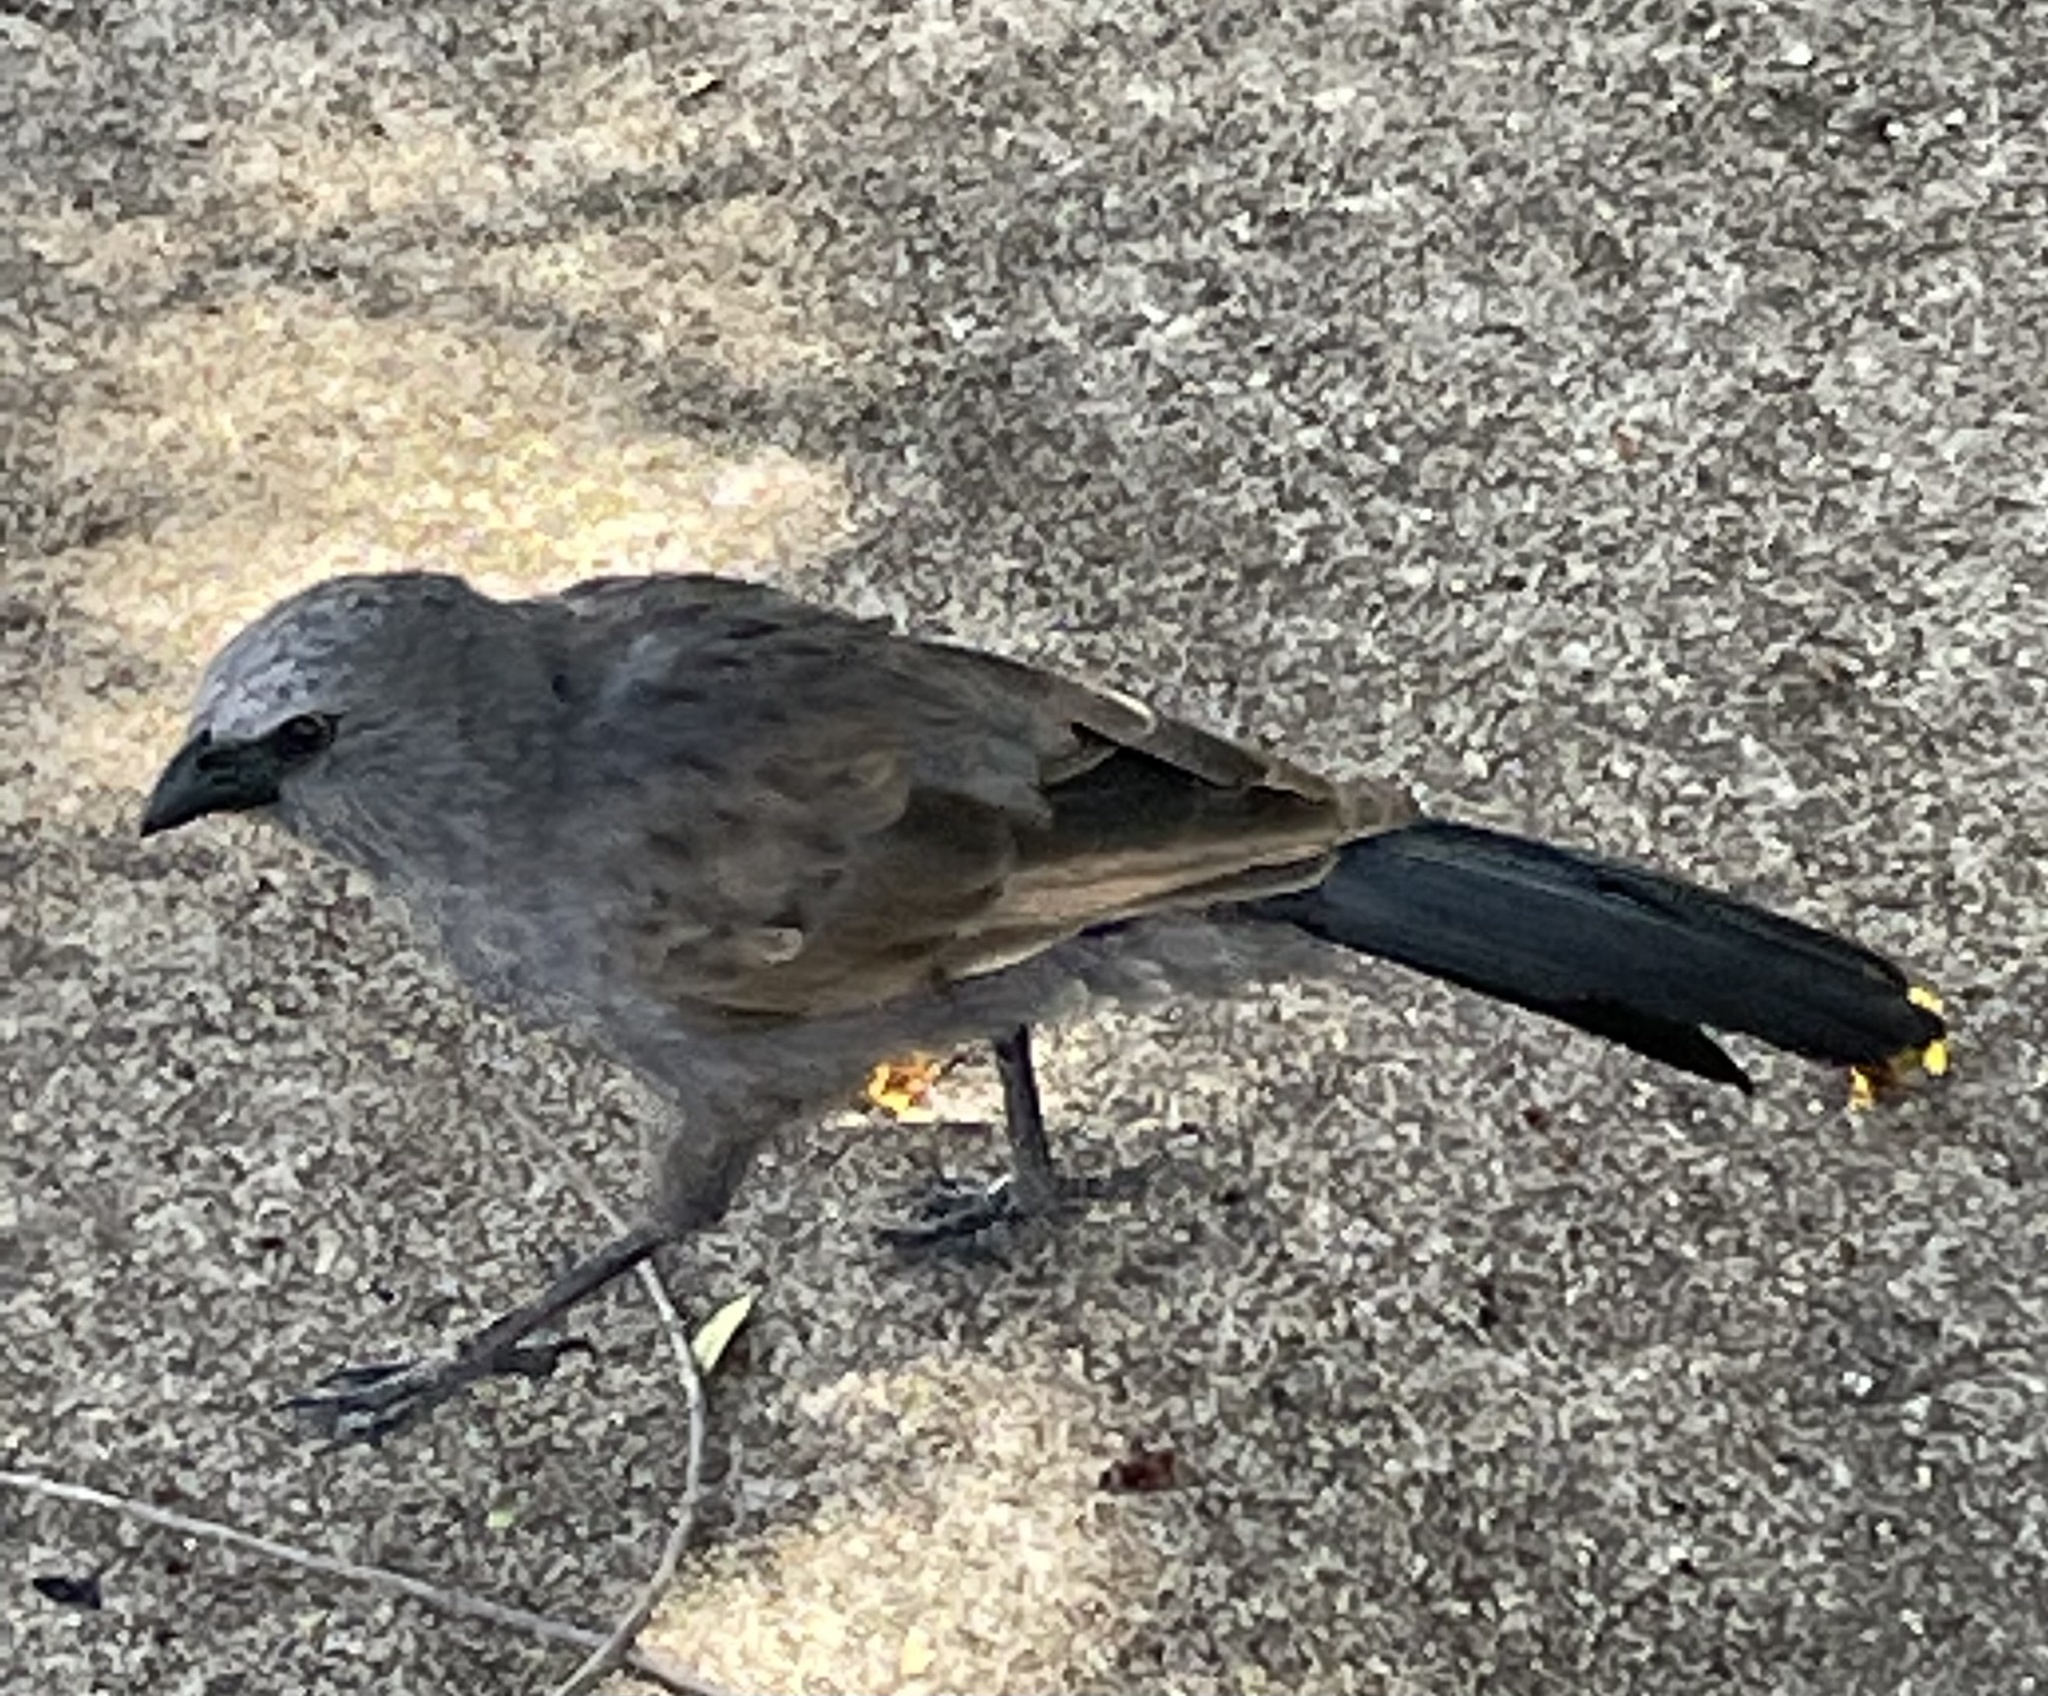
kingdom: Animalia
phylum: Chordata
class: Aves
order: Passeriformes
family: Corcoracidae
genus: Struthidea
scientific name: Struthidea cinerea
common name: Apostlebird
